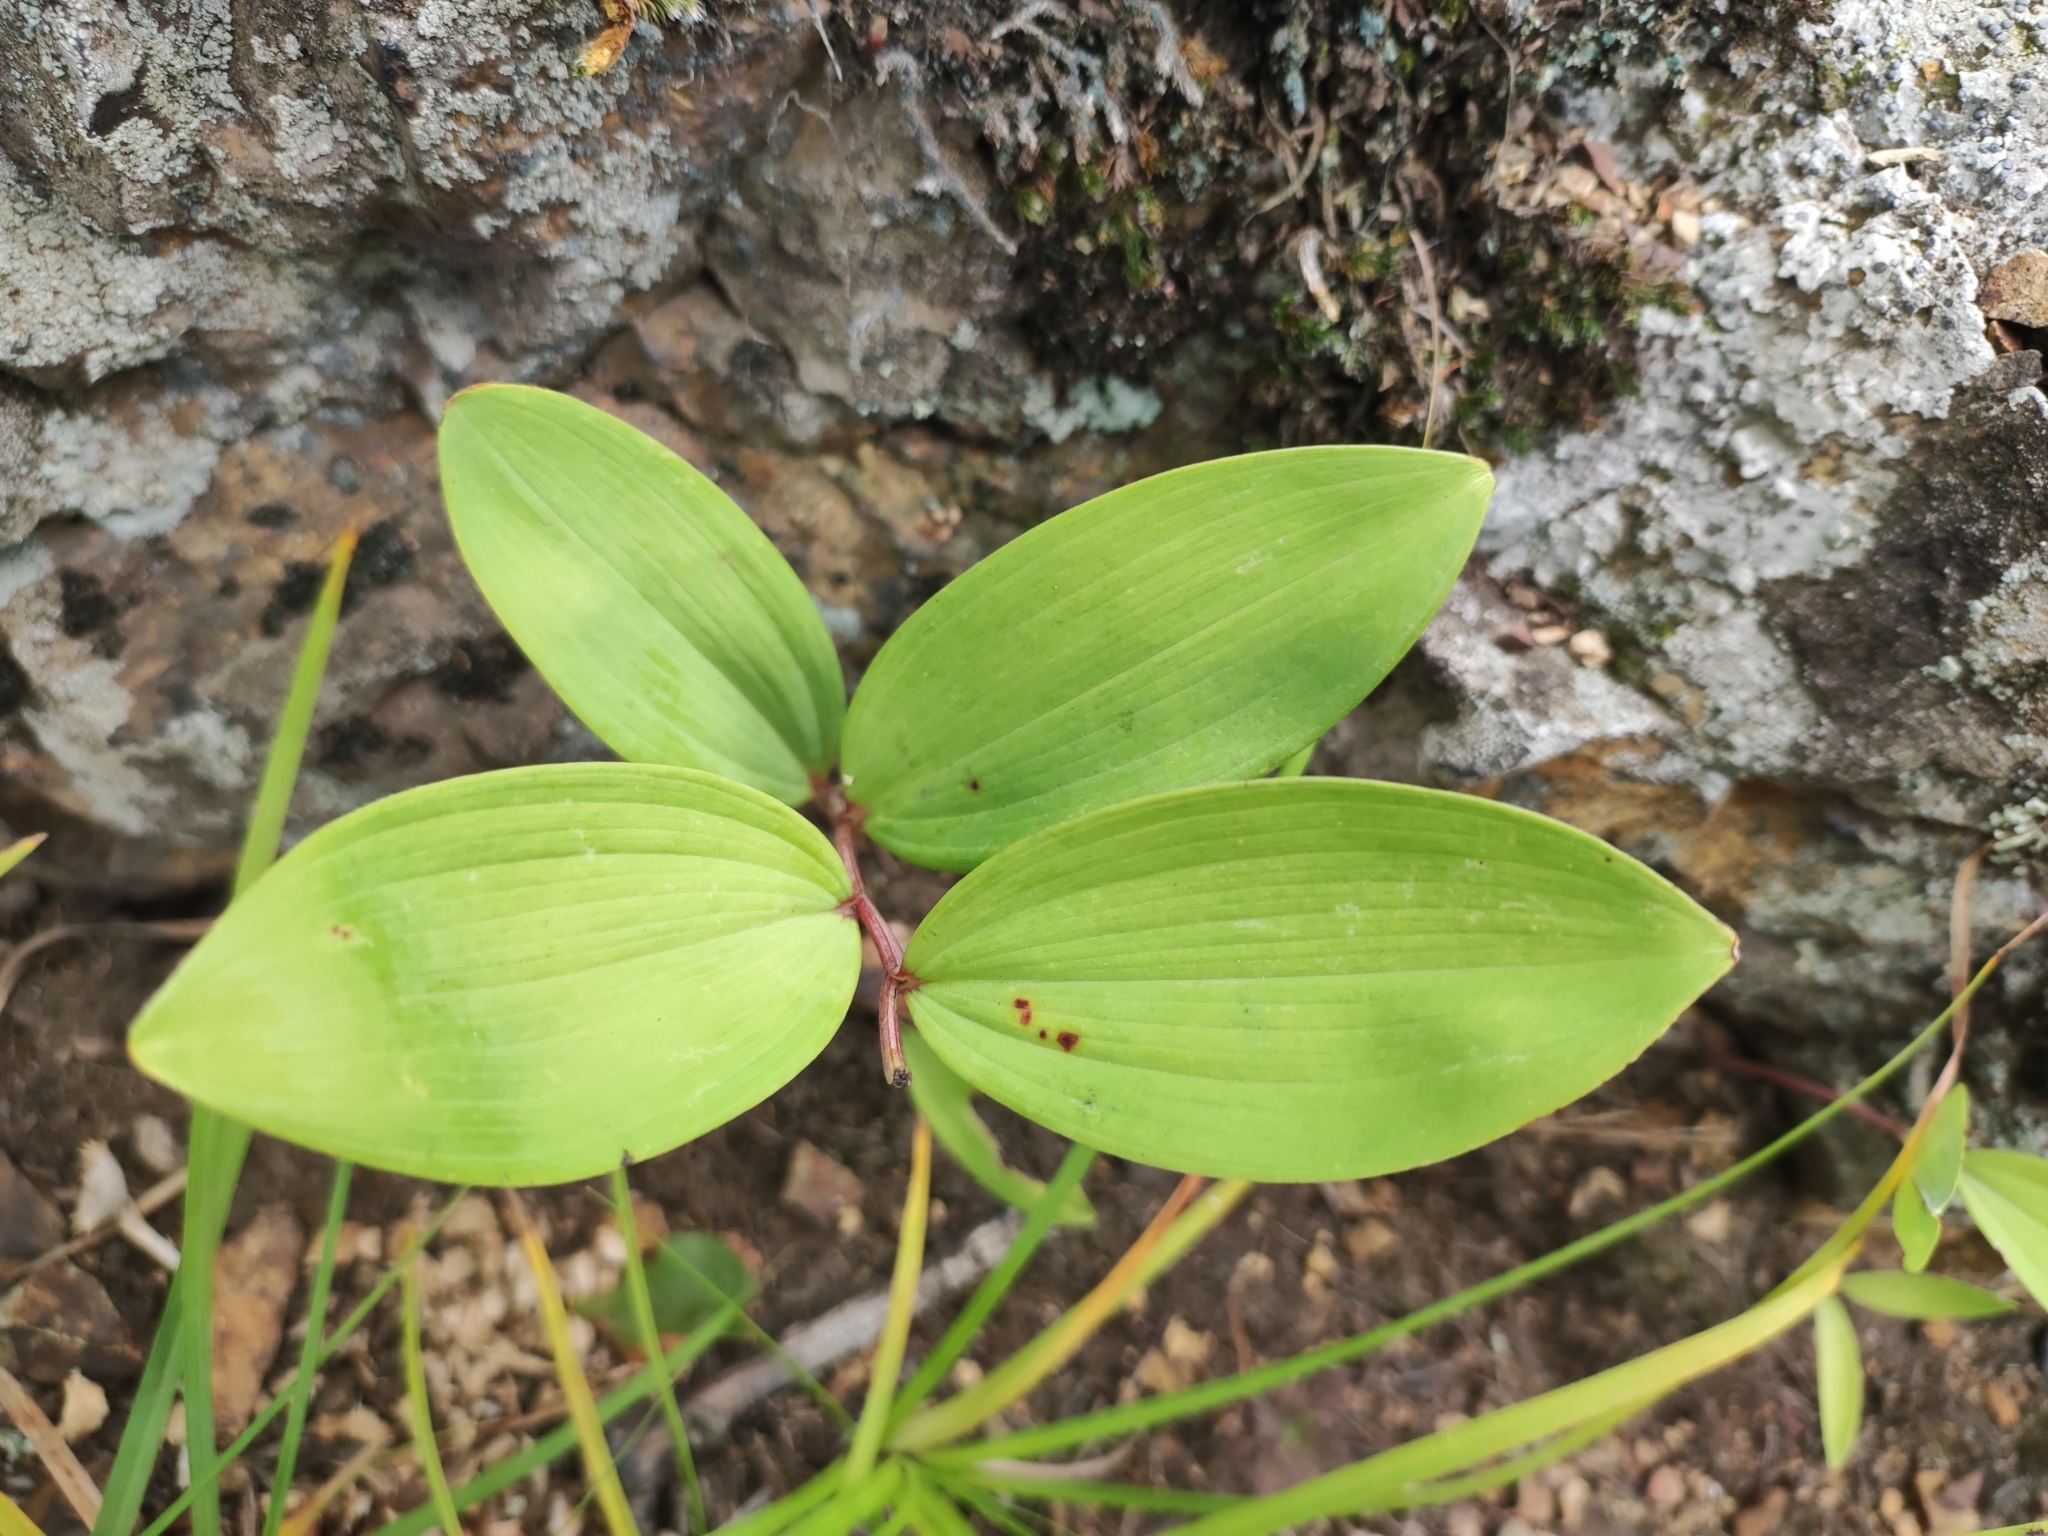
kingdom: Plantae
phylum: Tracheophyta
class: Liliopsida
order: Asparagales
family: Asparagaceae
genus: Polygonatum
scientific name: Polygonatum odoratum
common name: Angular solomon's-seal
